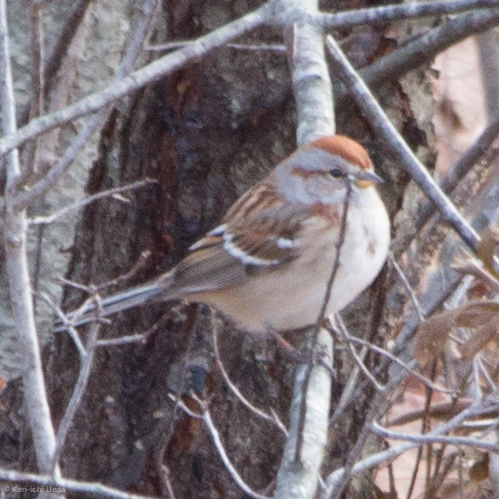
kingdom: Animalia
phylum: Chordata
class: Aves
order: Passeriformes
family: Passerellidae
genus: Spizelloides
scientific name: Spizelloides arborea
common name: American tree sparrow
